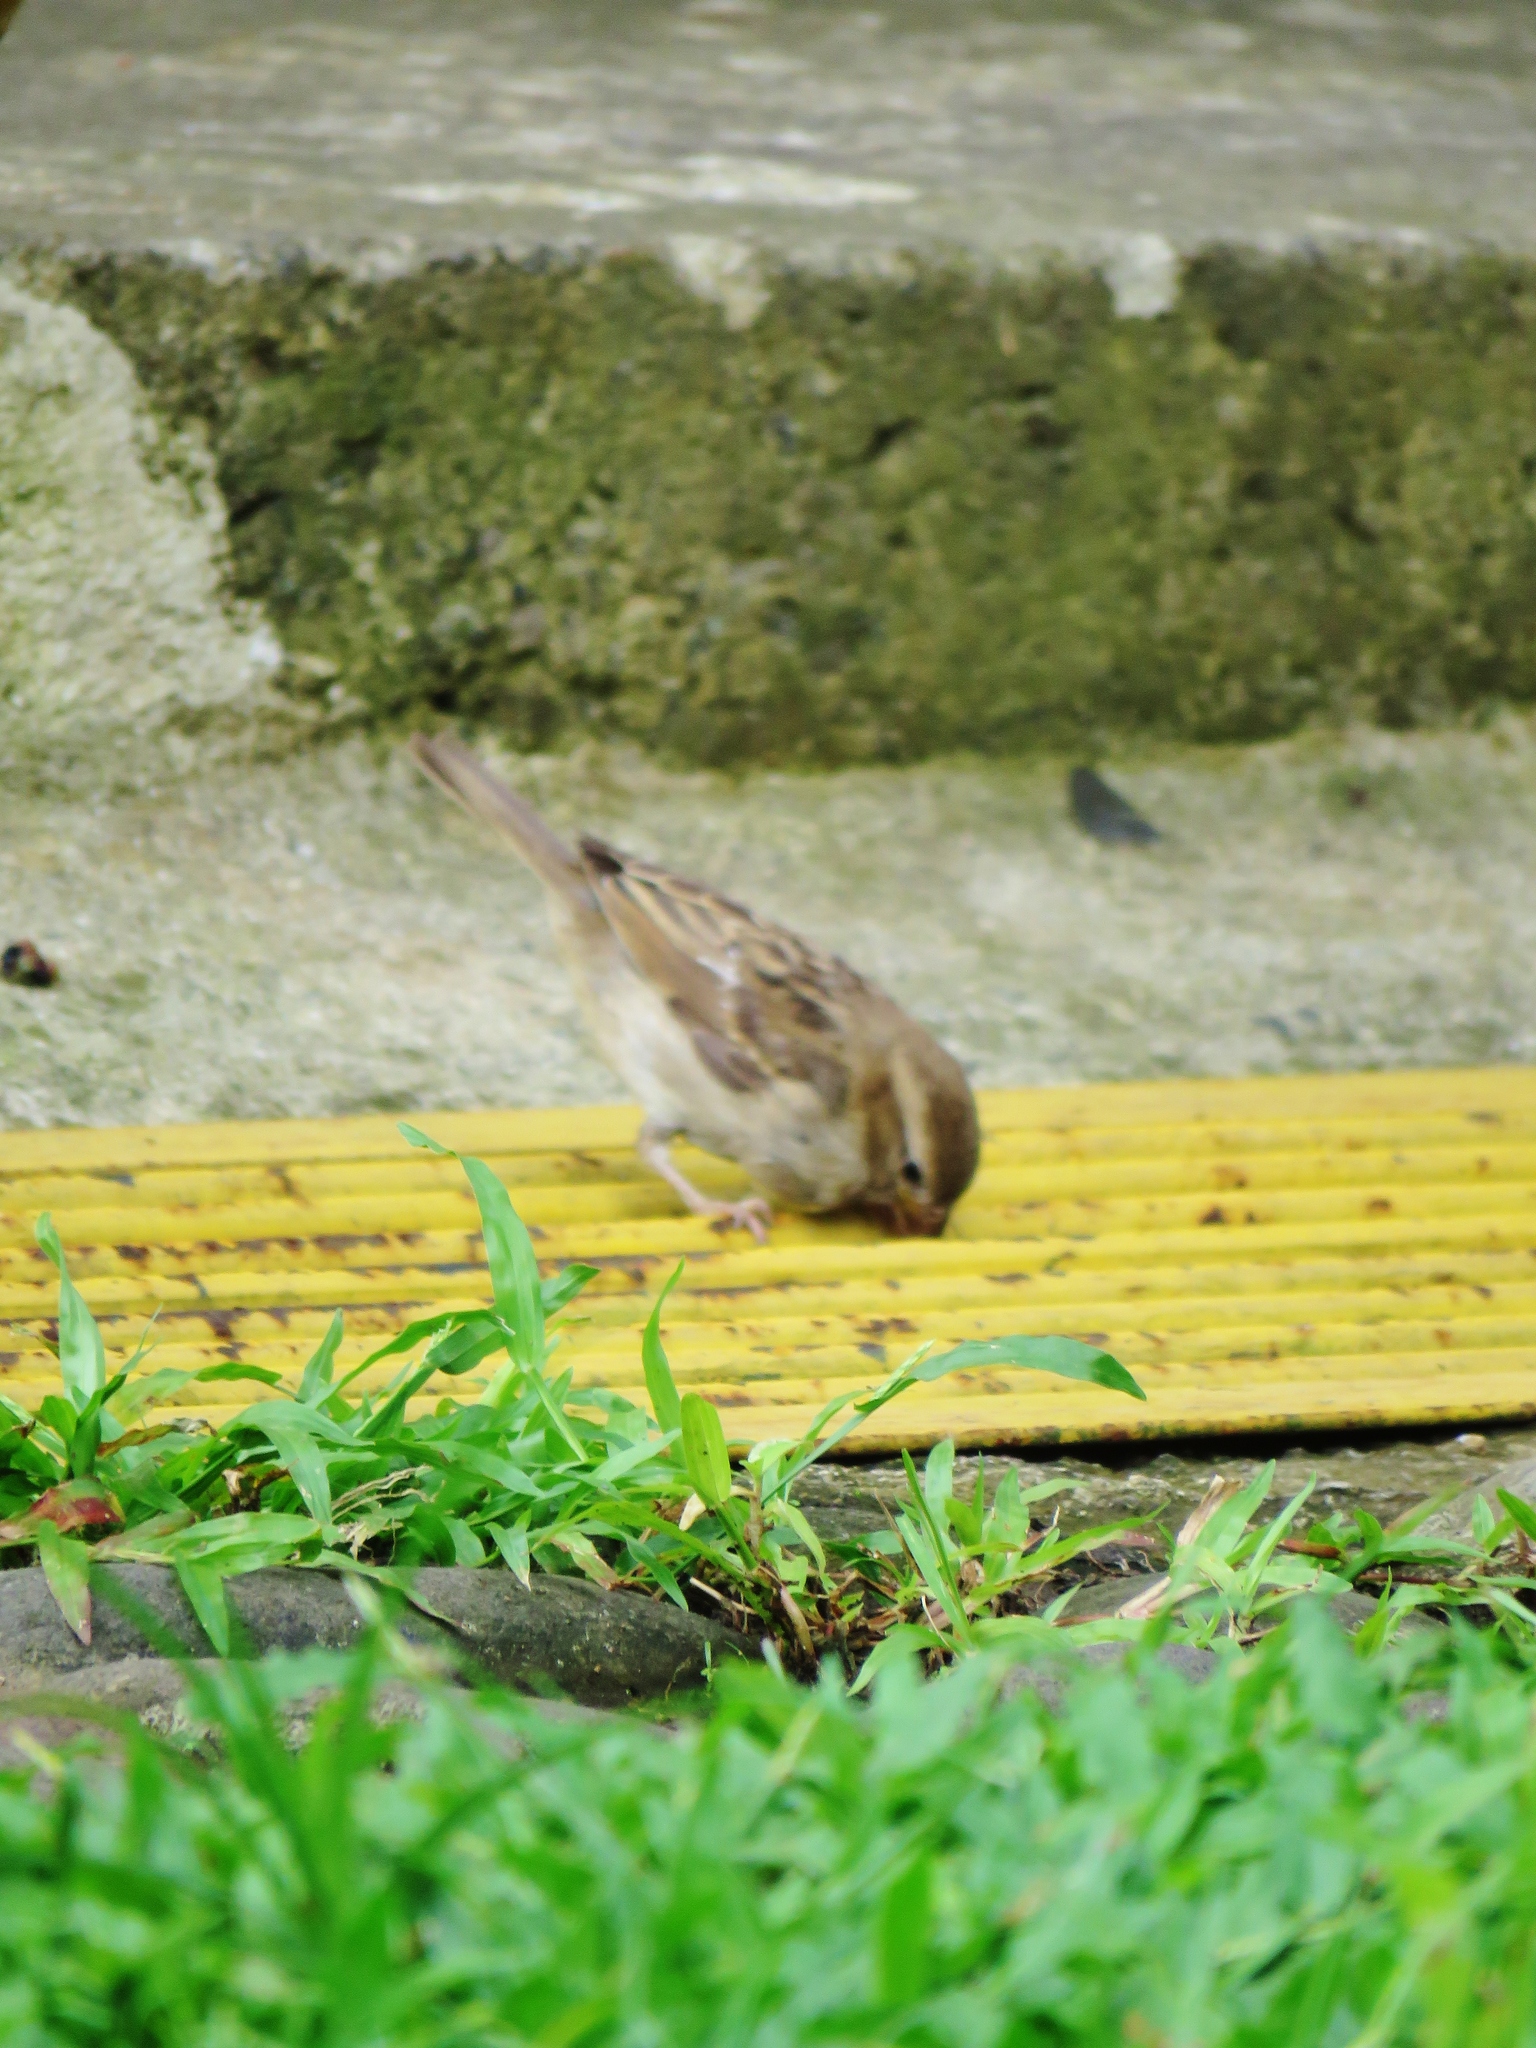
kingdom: Animalia
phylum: Chordata
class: Aves
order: Passeriformes
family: Passeridae
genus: Passer
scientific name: Passer domesticus
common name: House sparrow
